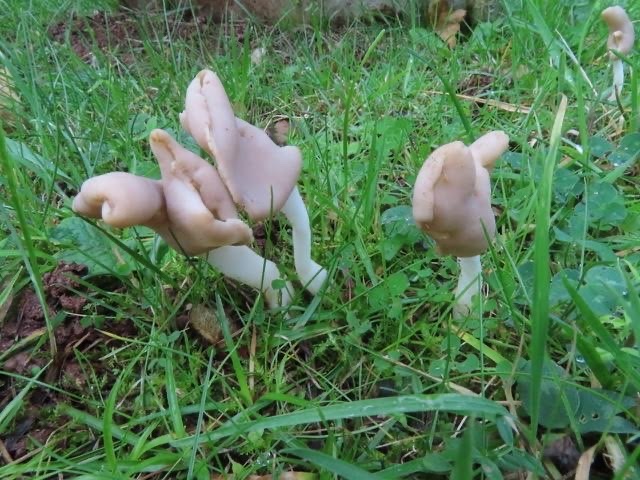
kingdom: Fungi
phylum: Ascomycota
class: Pezizomycetes
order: Pezizales
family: Helvellaceae
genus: Helvella
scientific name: Helvella elastica
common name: Elastic saddle
